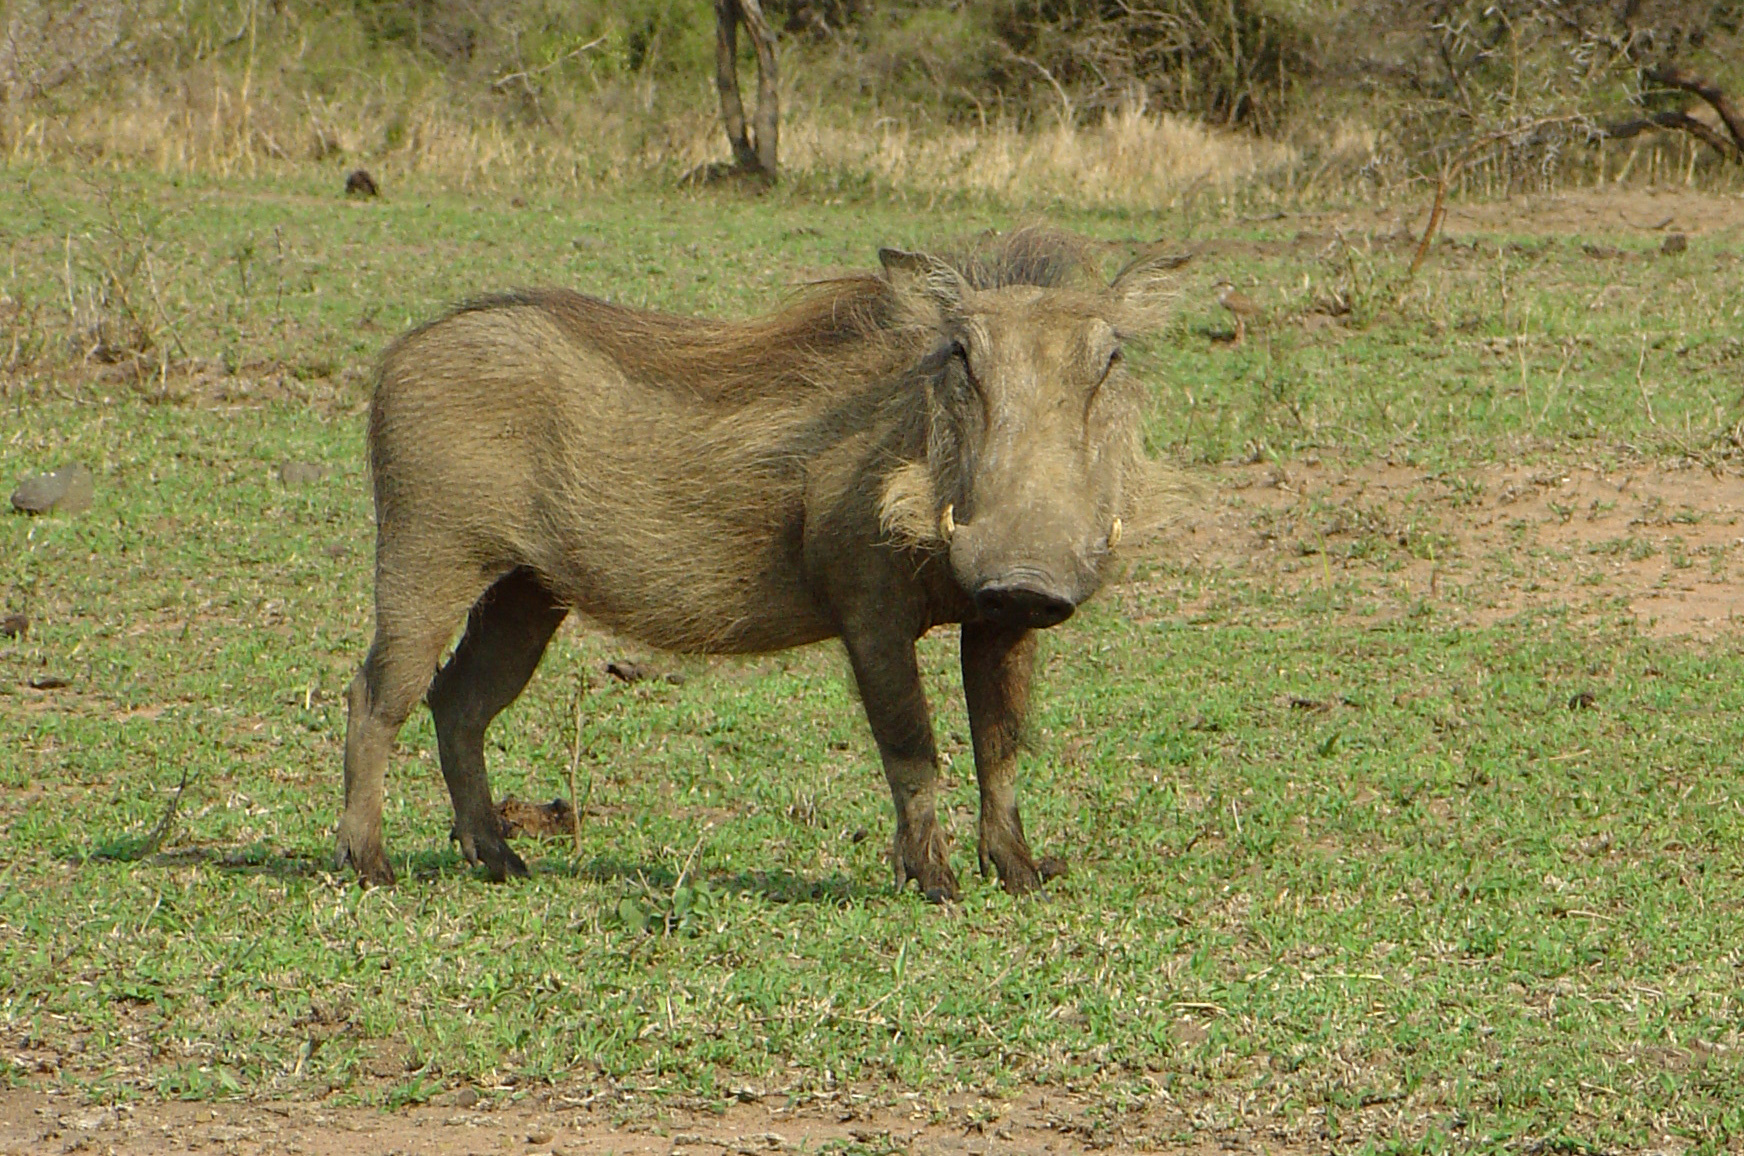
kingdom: Animalia
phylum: Chordata
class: Mammalia
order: Artiodactyla
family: Suidae
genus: Phacochoerus
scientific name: Phacochoerus africanus
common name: Common warthog
